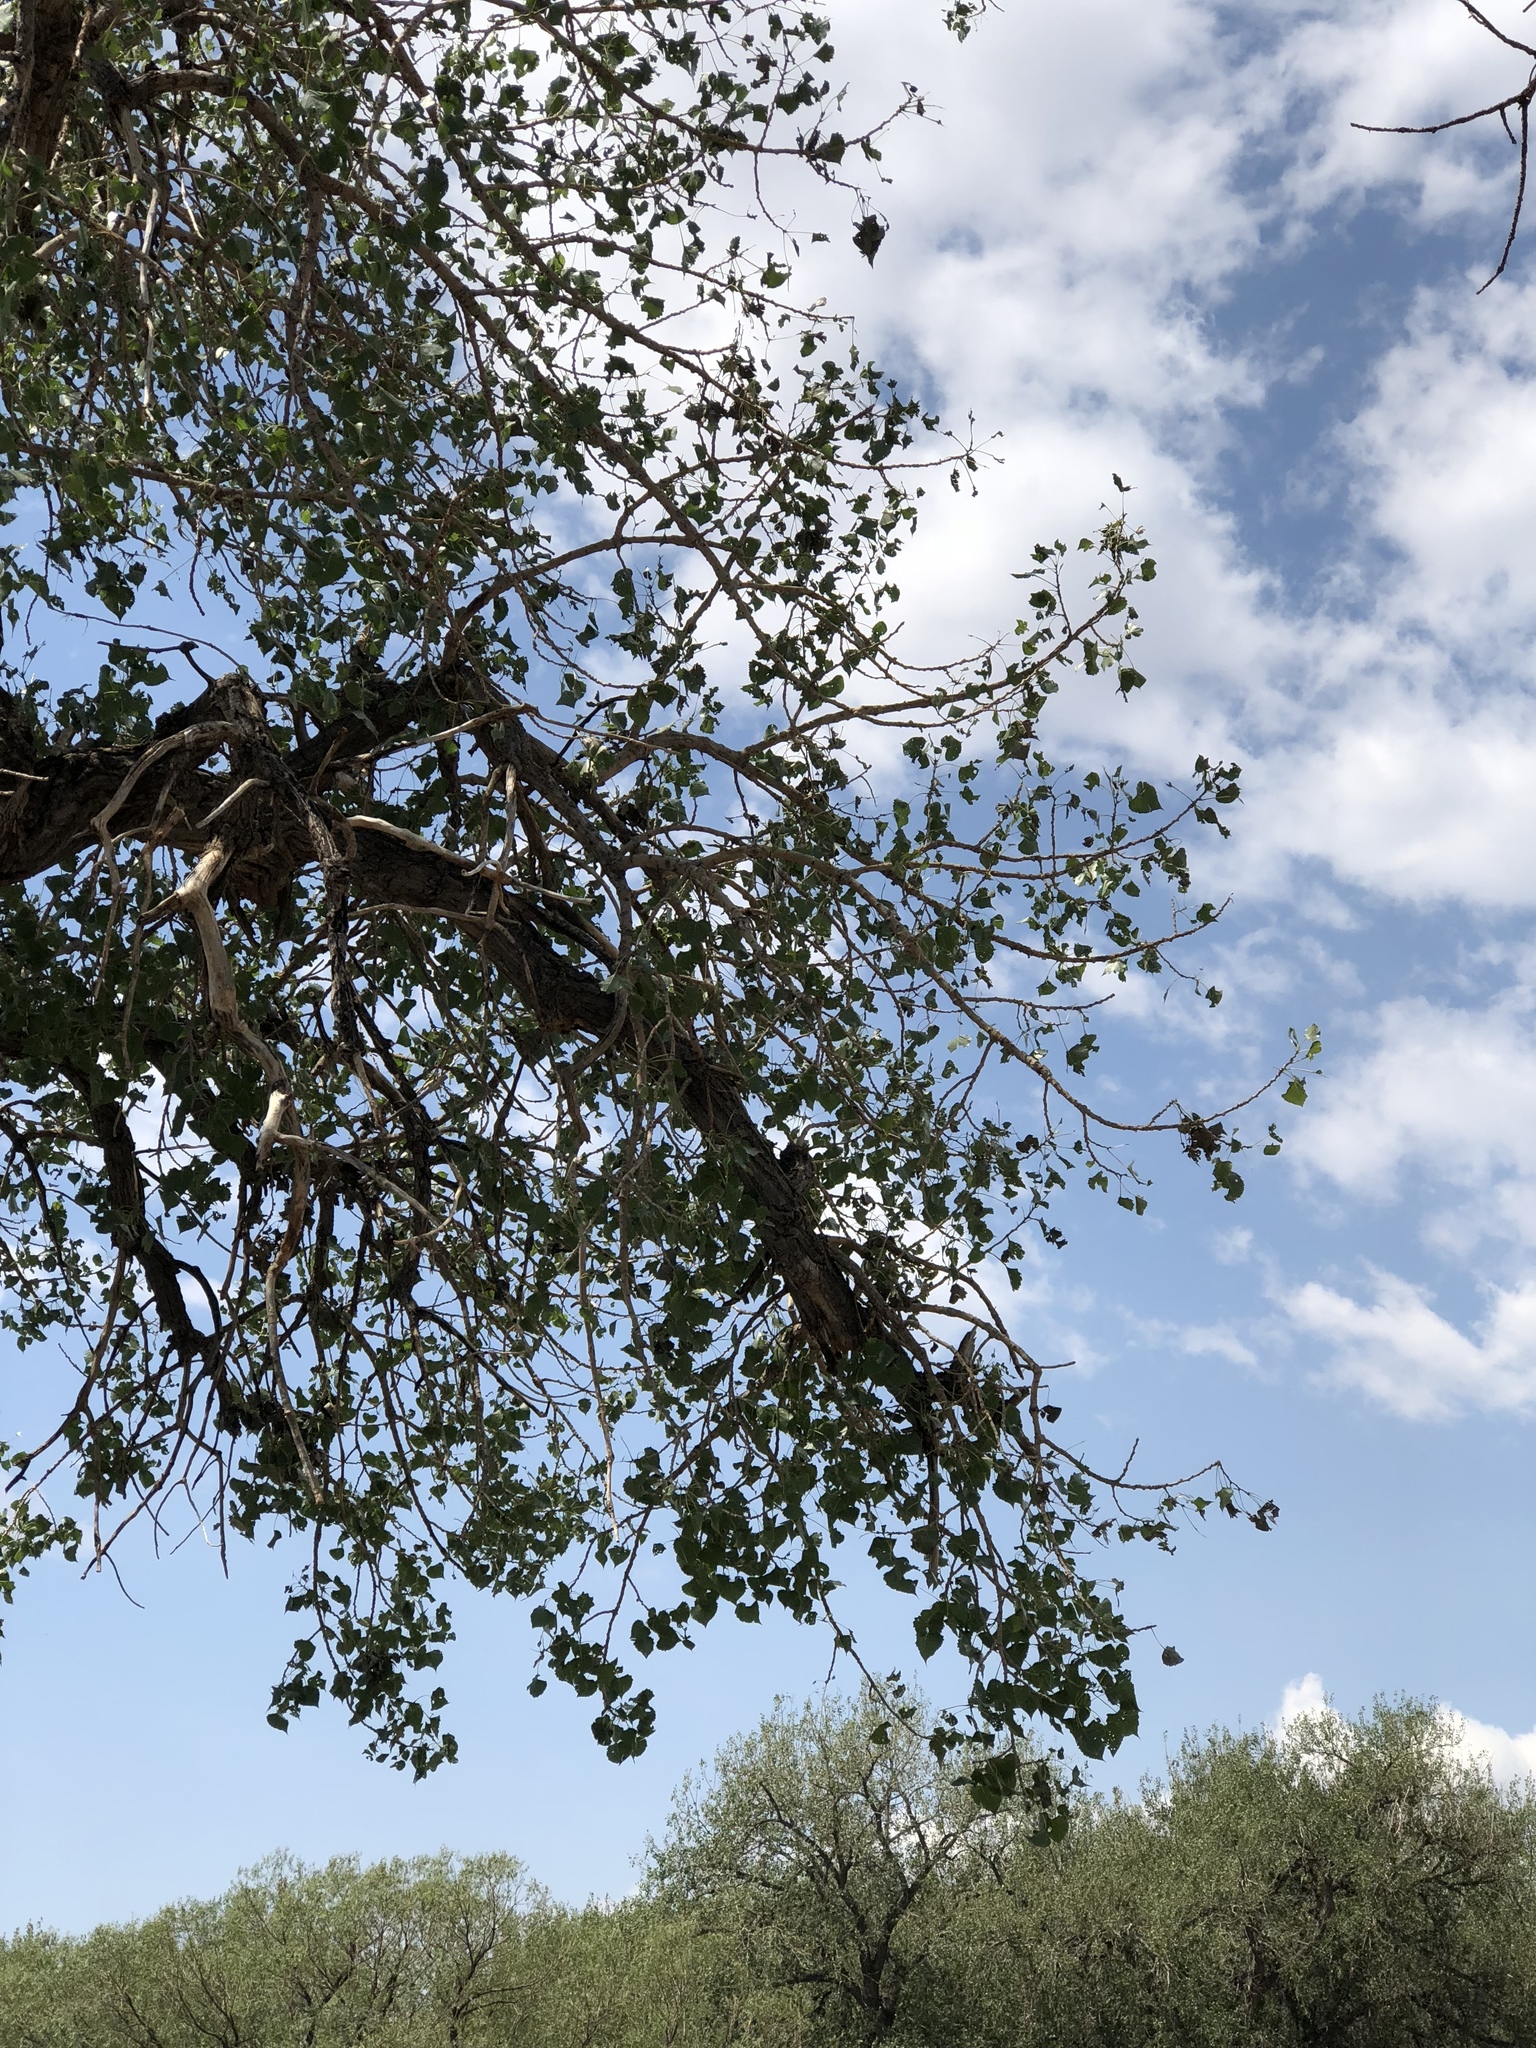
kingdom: Plantae
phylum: Tracheophyta
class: Magnoliopsida
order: Malpighiales
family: Salicaceae
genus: Populus
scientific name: Populus deltoides
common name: Eastern cottonwood
